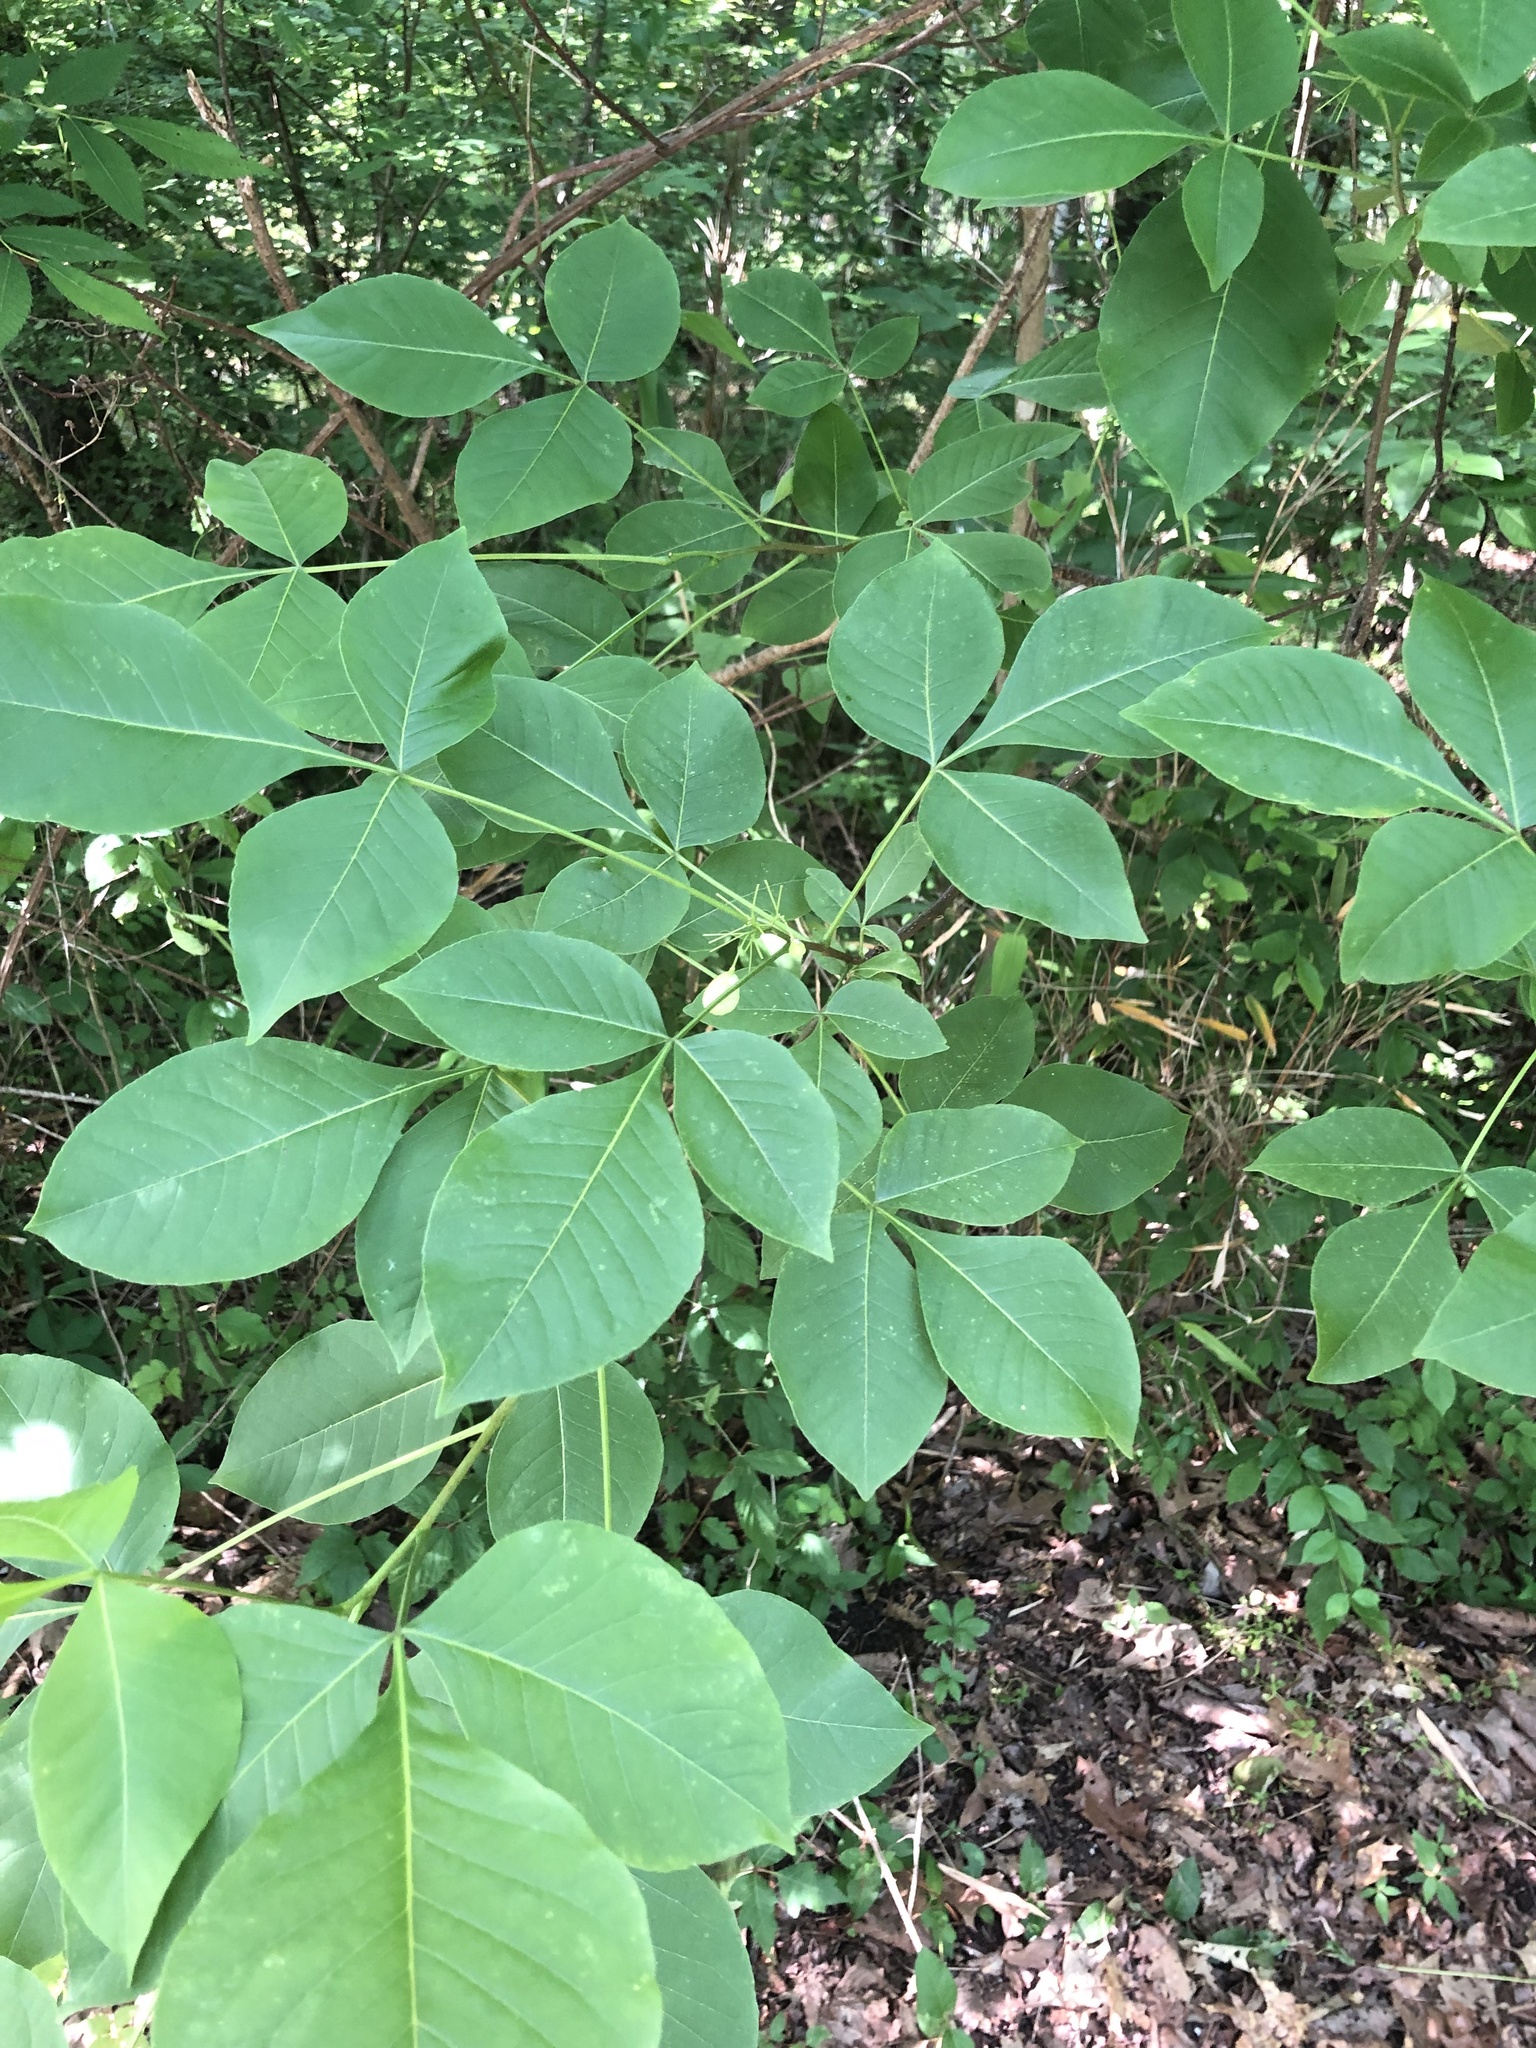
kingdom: Plantae
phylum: Tracheophyta
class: Magnoliopsida
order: Sapindales
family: Rutaceae
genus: Ptelea
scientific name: Ptelea trifoliata
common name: Common hop-tree
